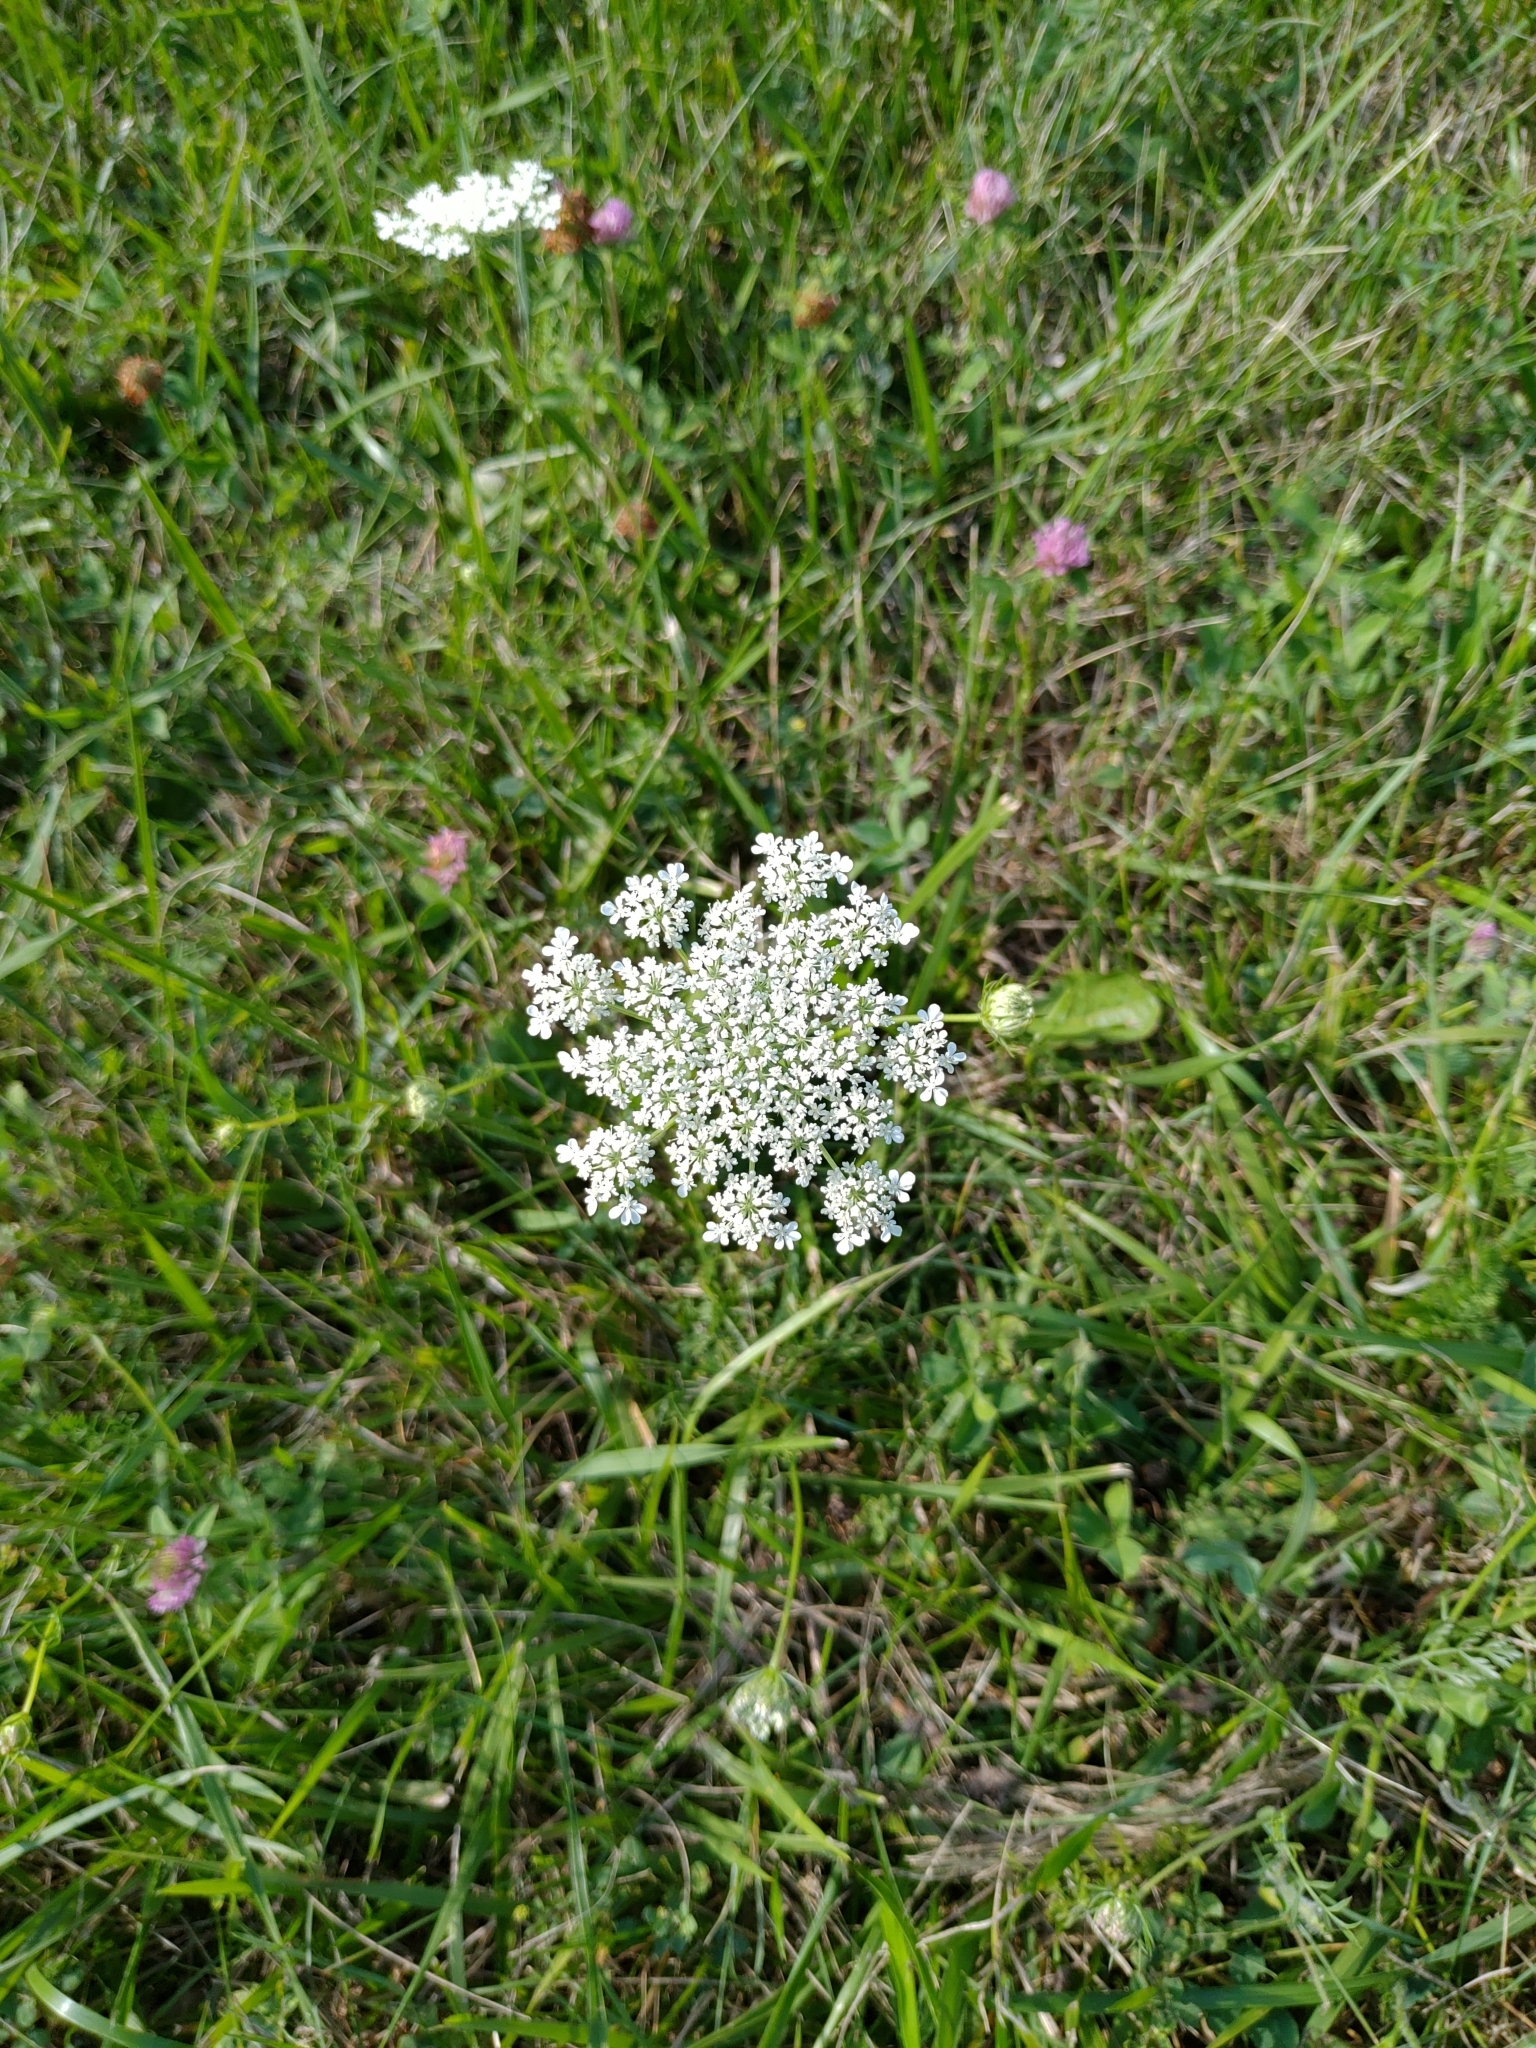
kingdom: Plantae
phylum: Tracheophyta
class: Magnoliopsida
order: Apiales
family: Apiaceae
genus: Daucus
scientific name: Daucus carota
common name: Wild carrot
